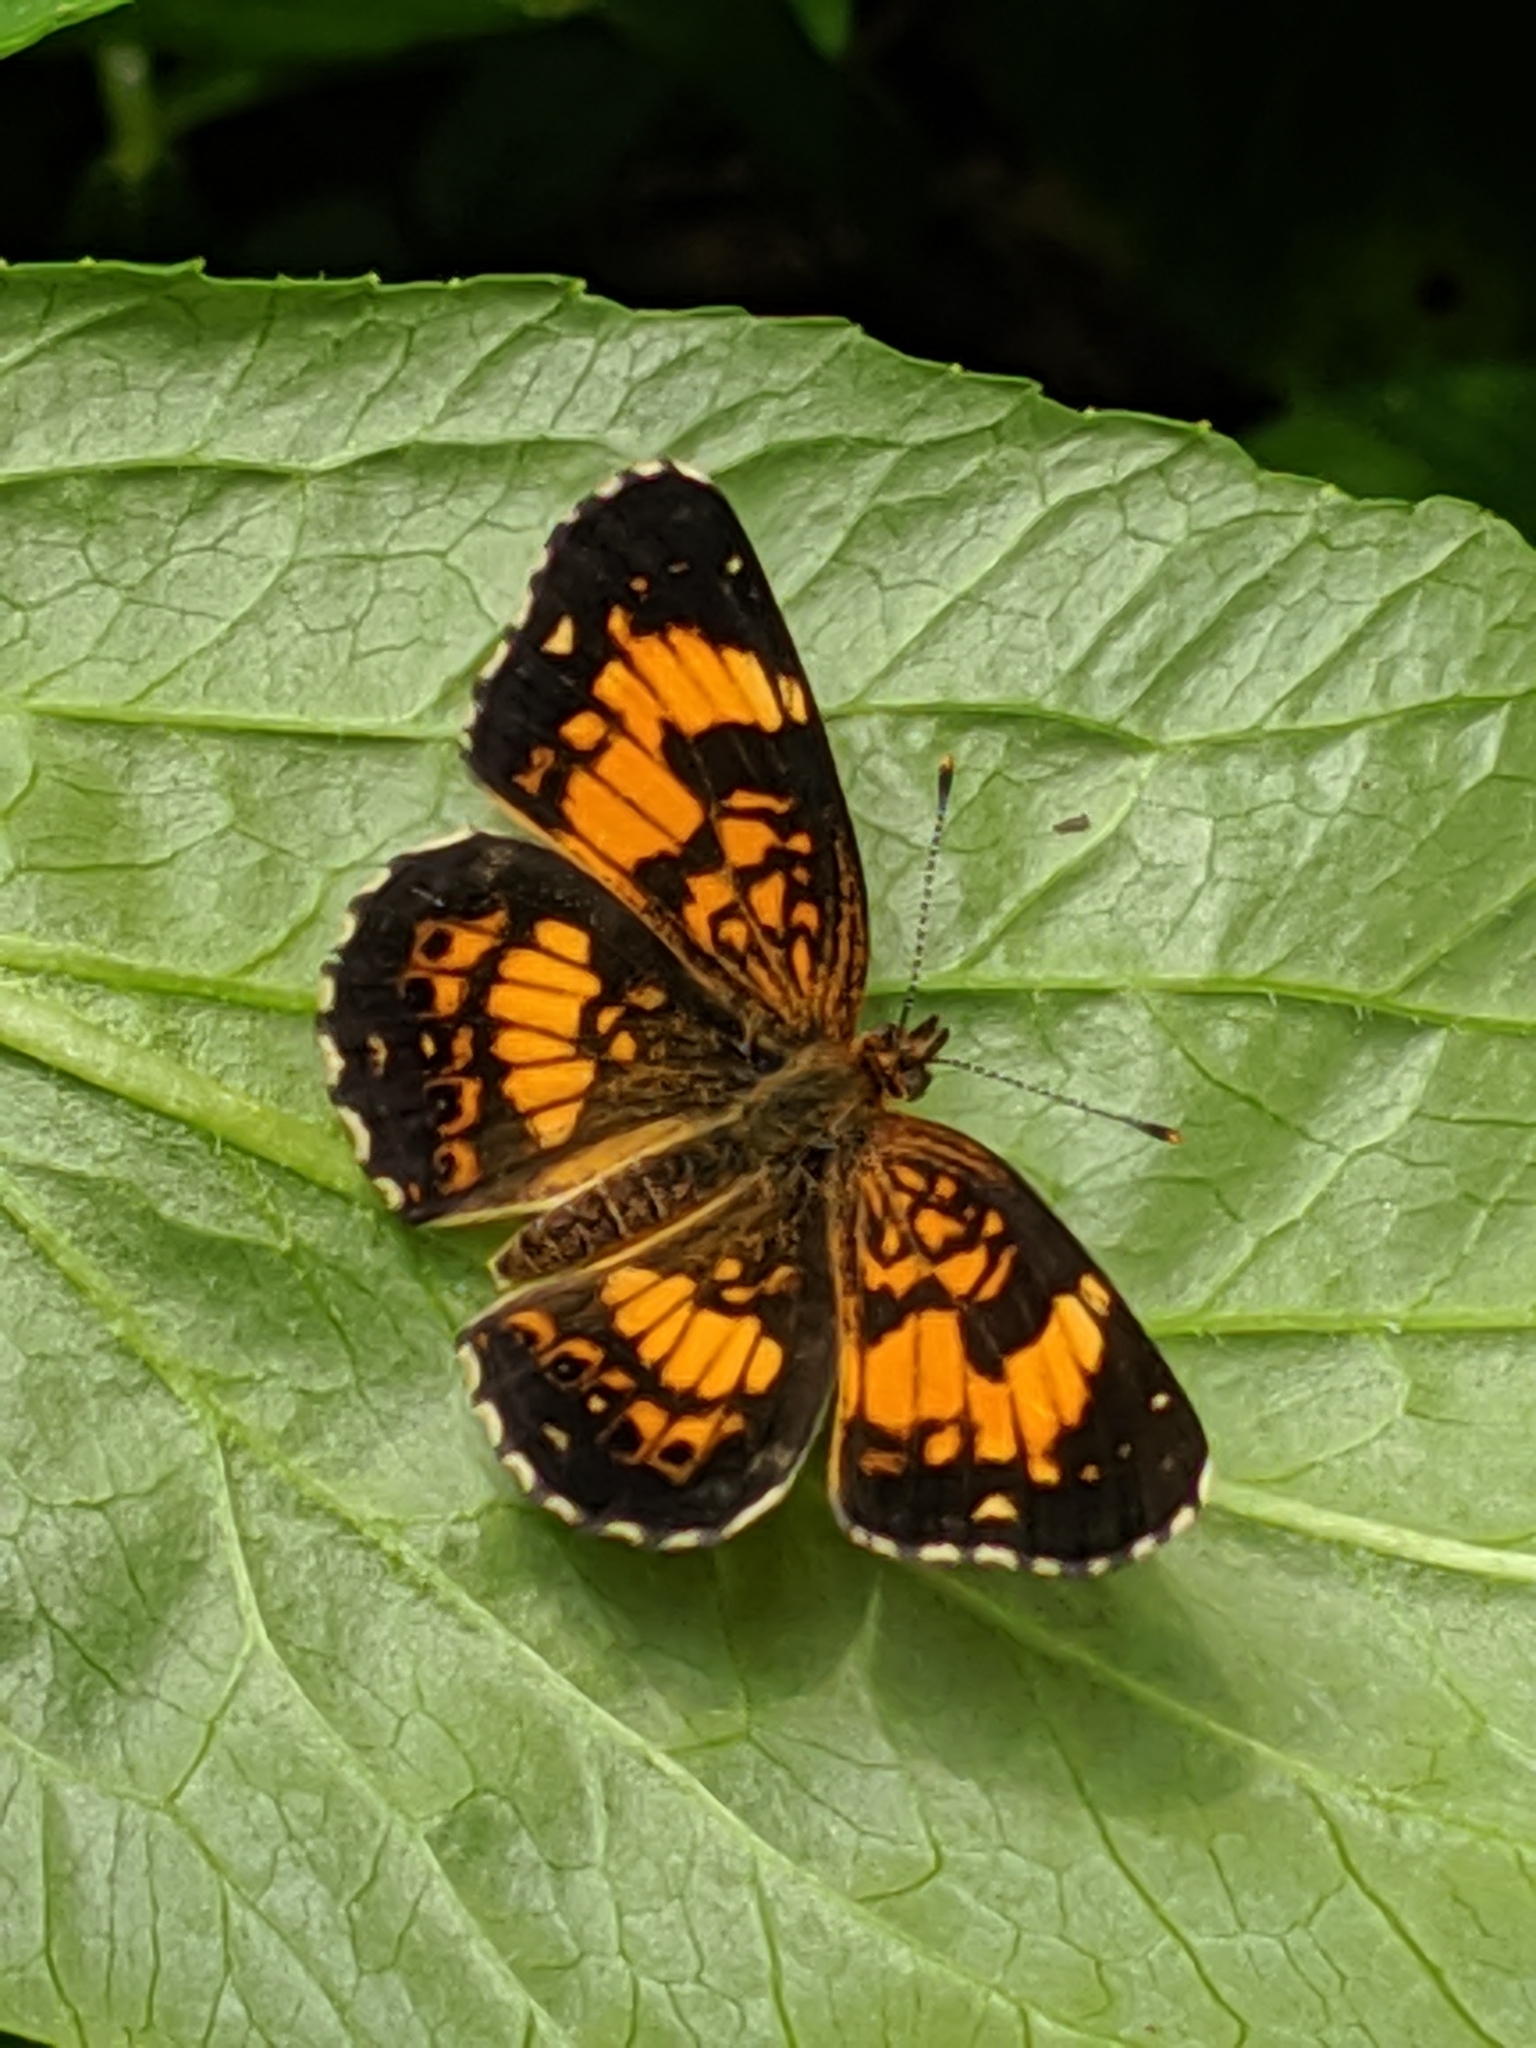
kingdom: Animalia
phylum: Arthropoda
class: Insecta
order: Lepidoptera
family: Nymphalidae
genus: Chlosyne
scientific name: Chlosyne nycteis
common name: Silvery checkerspot
